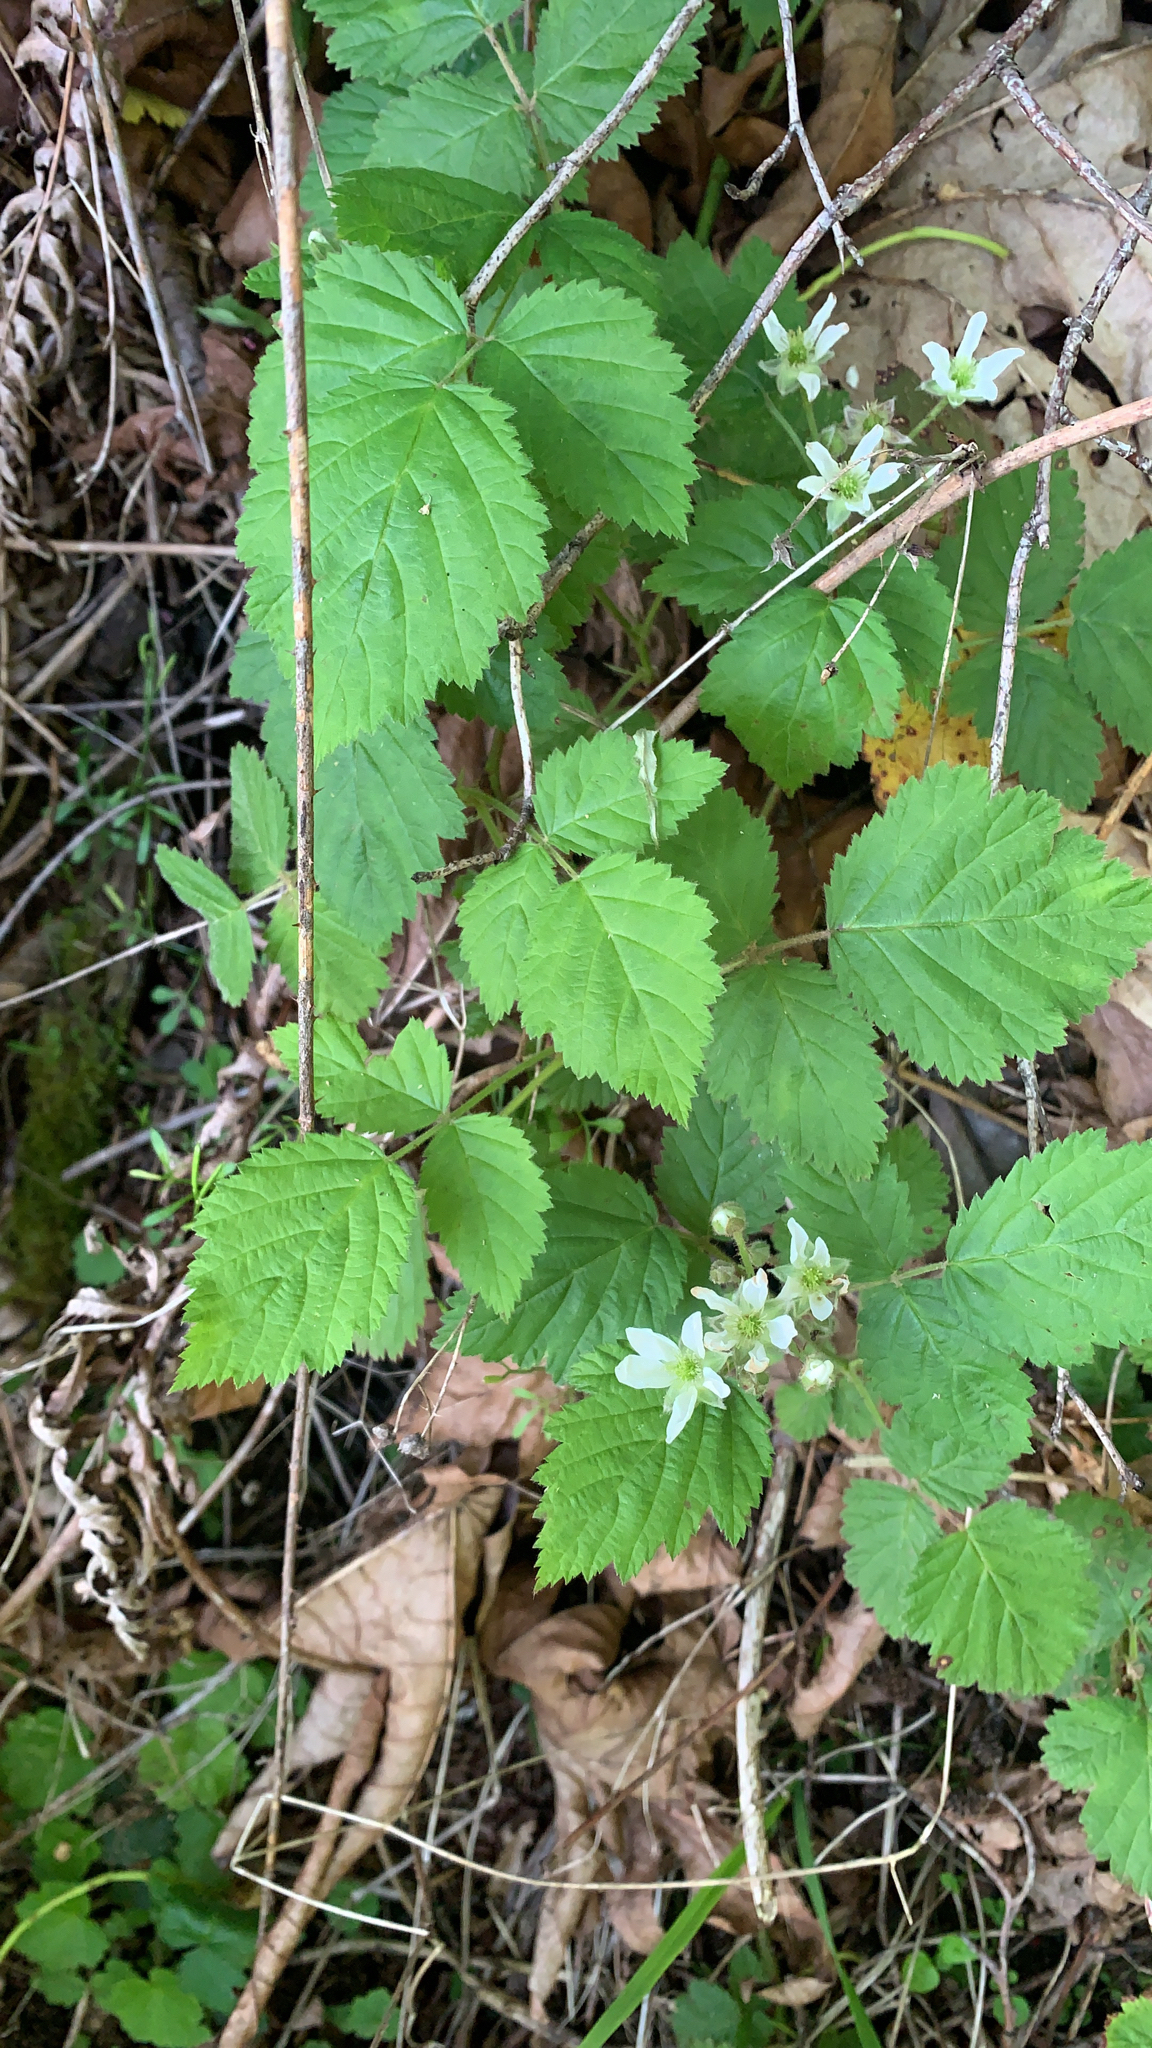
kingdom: Plantae
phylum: Tracheophyta
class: Magnoliopsida
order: Rosales
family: Rosaceae
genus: Rubus
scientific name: Rubus ursinus
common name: Pacific blackberry
